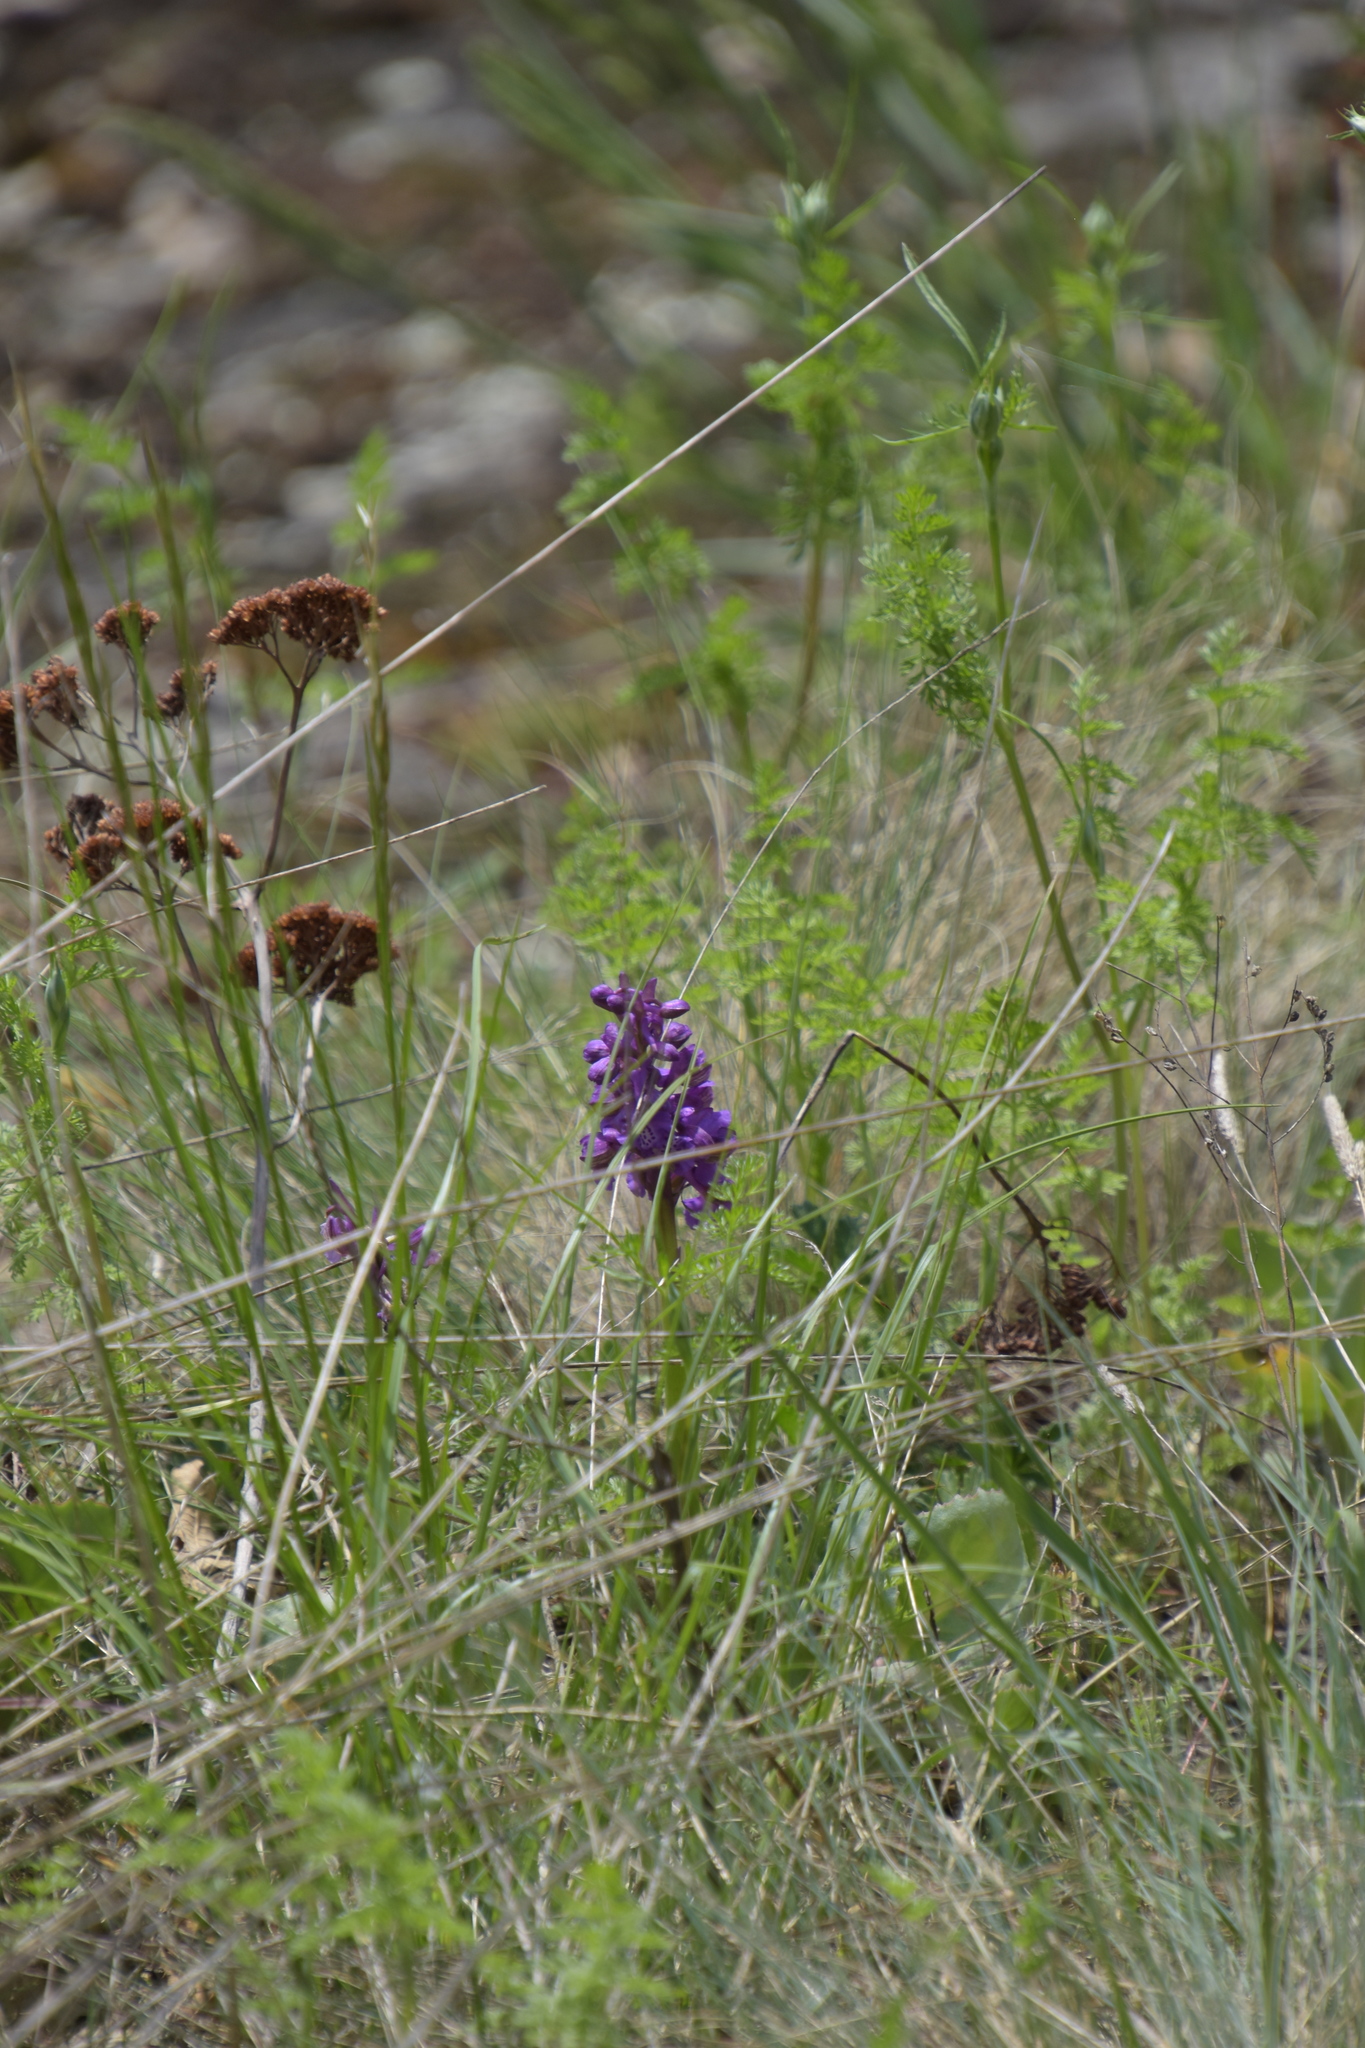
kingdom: Plantae
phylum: Tracheophyta
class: Liliopsida
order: Asparagales
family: Orchidaceae
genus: Anacamptis
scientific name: Anacamptis morio
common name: Green-winged orchid
